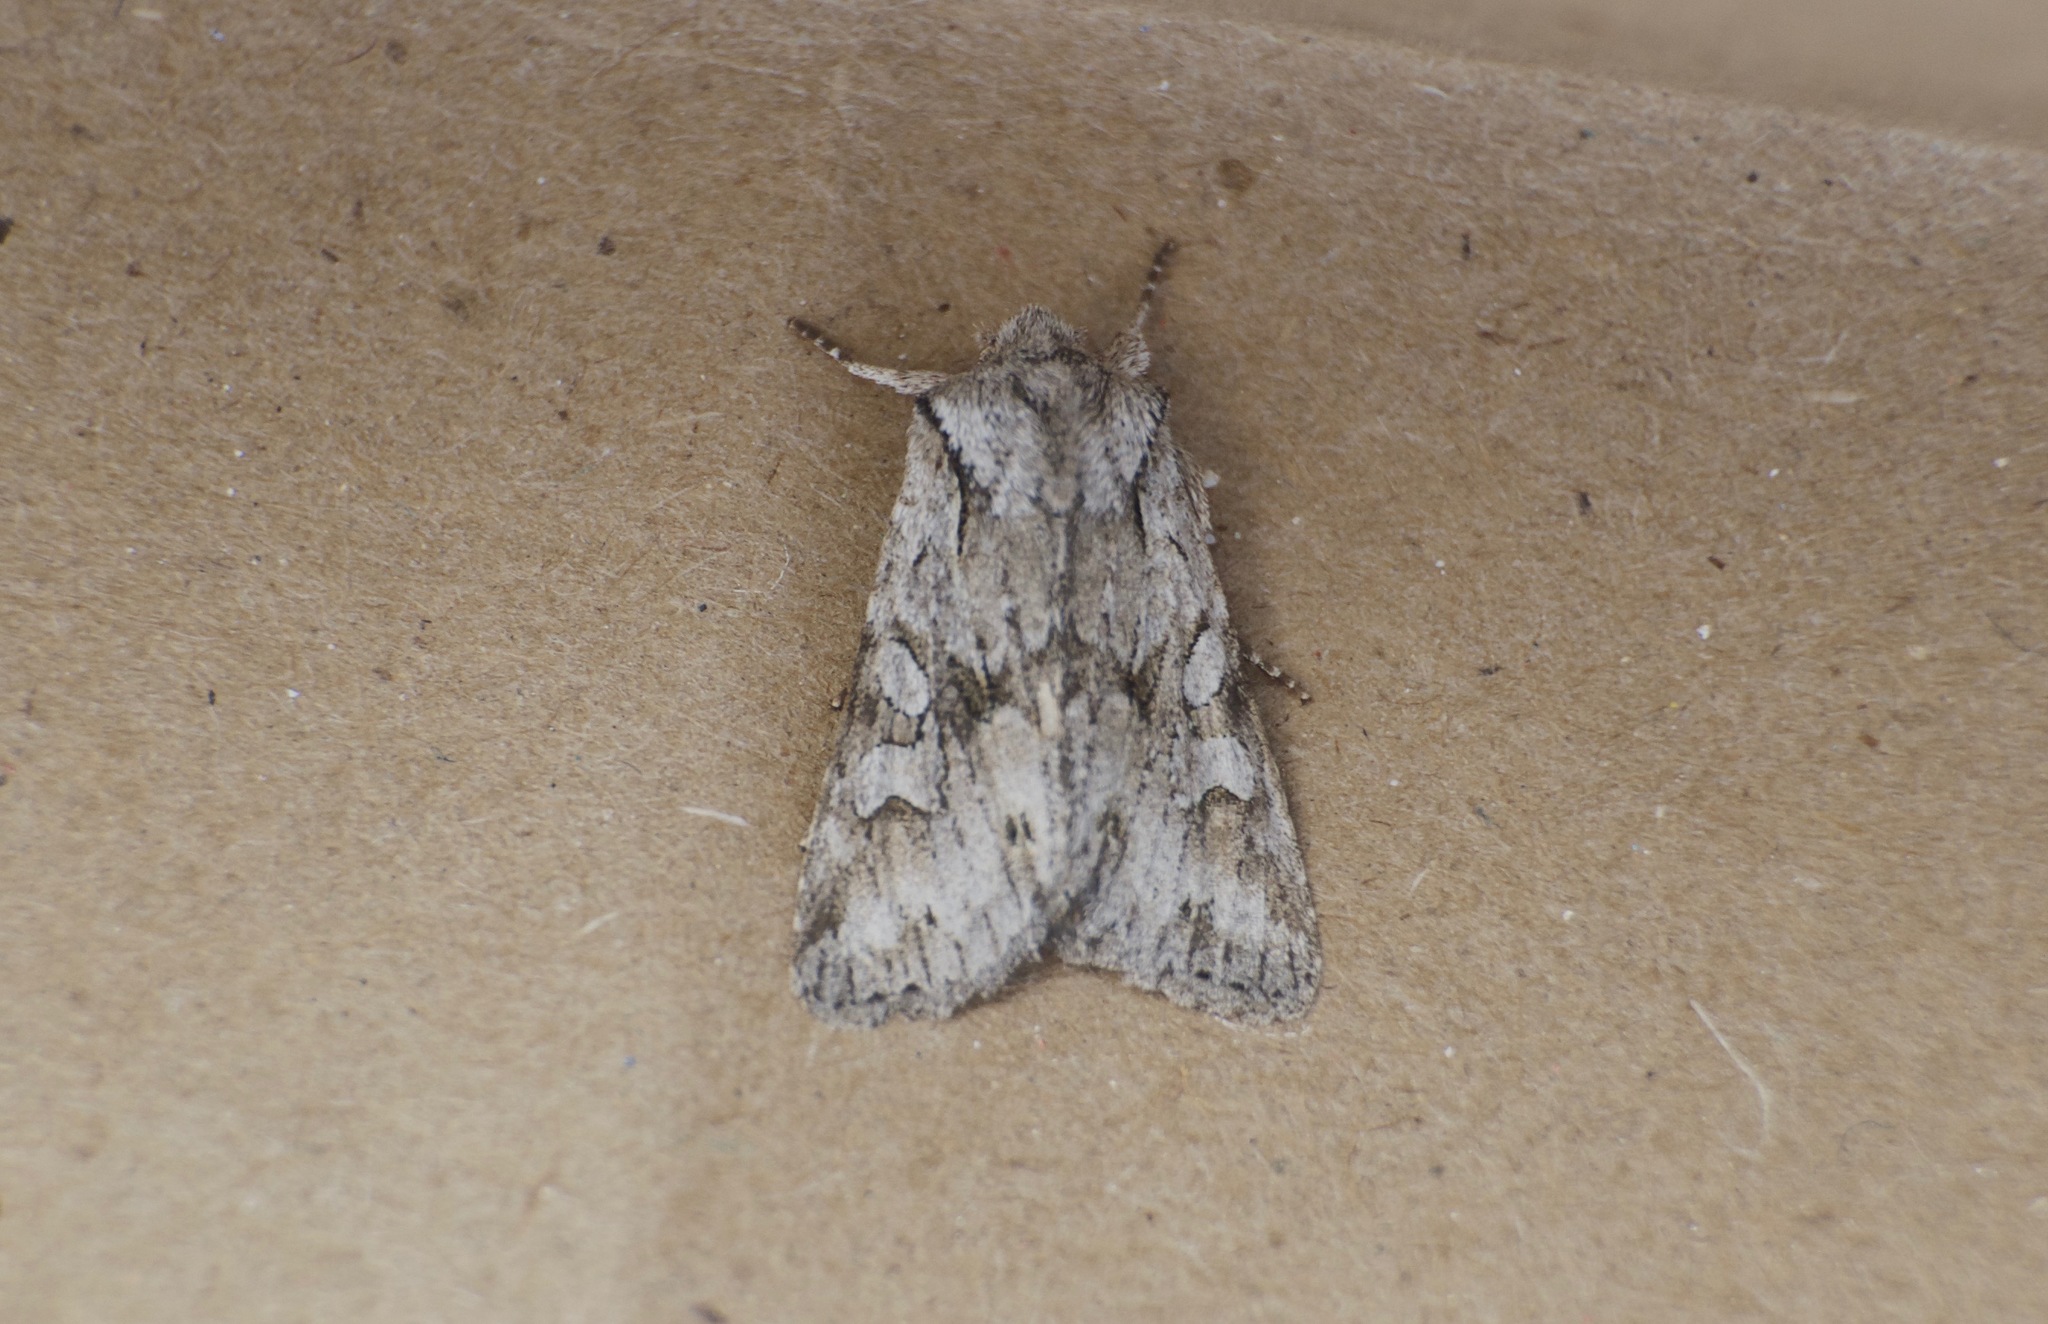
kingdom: Animalia
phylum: Arthropoda
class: Insecta
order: Lepidoptera
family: Noctuidae
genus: Lacinipolia
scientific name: Lacinipolia patalis
